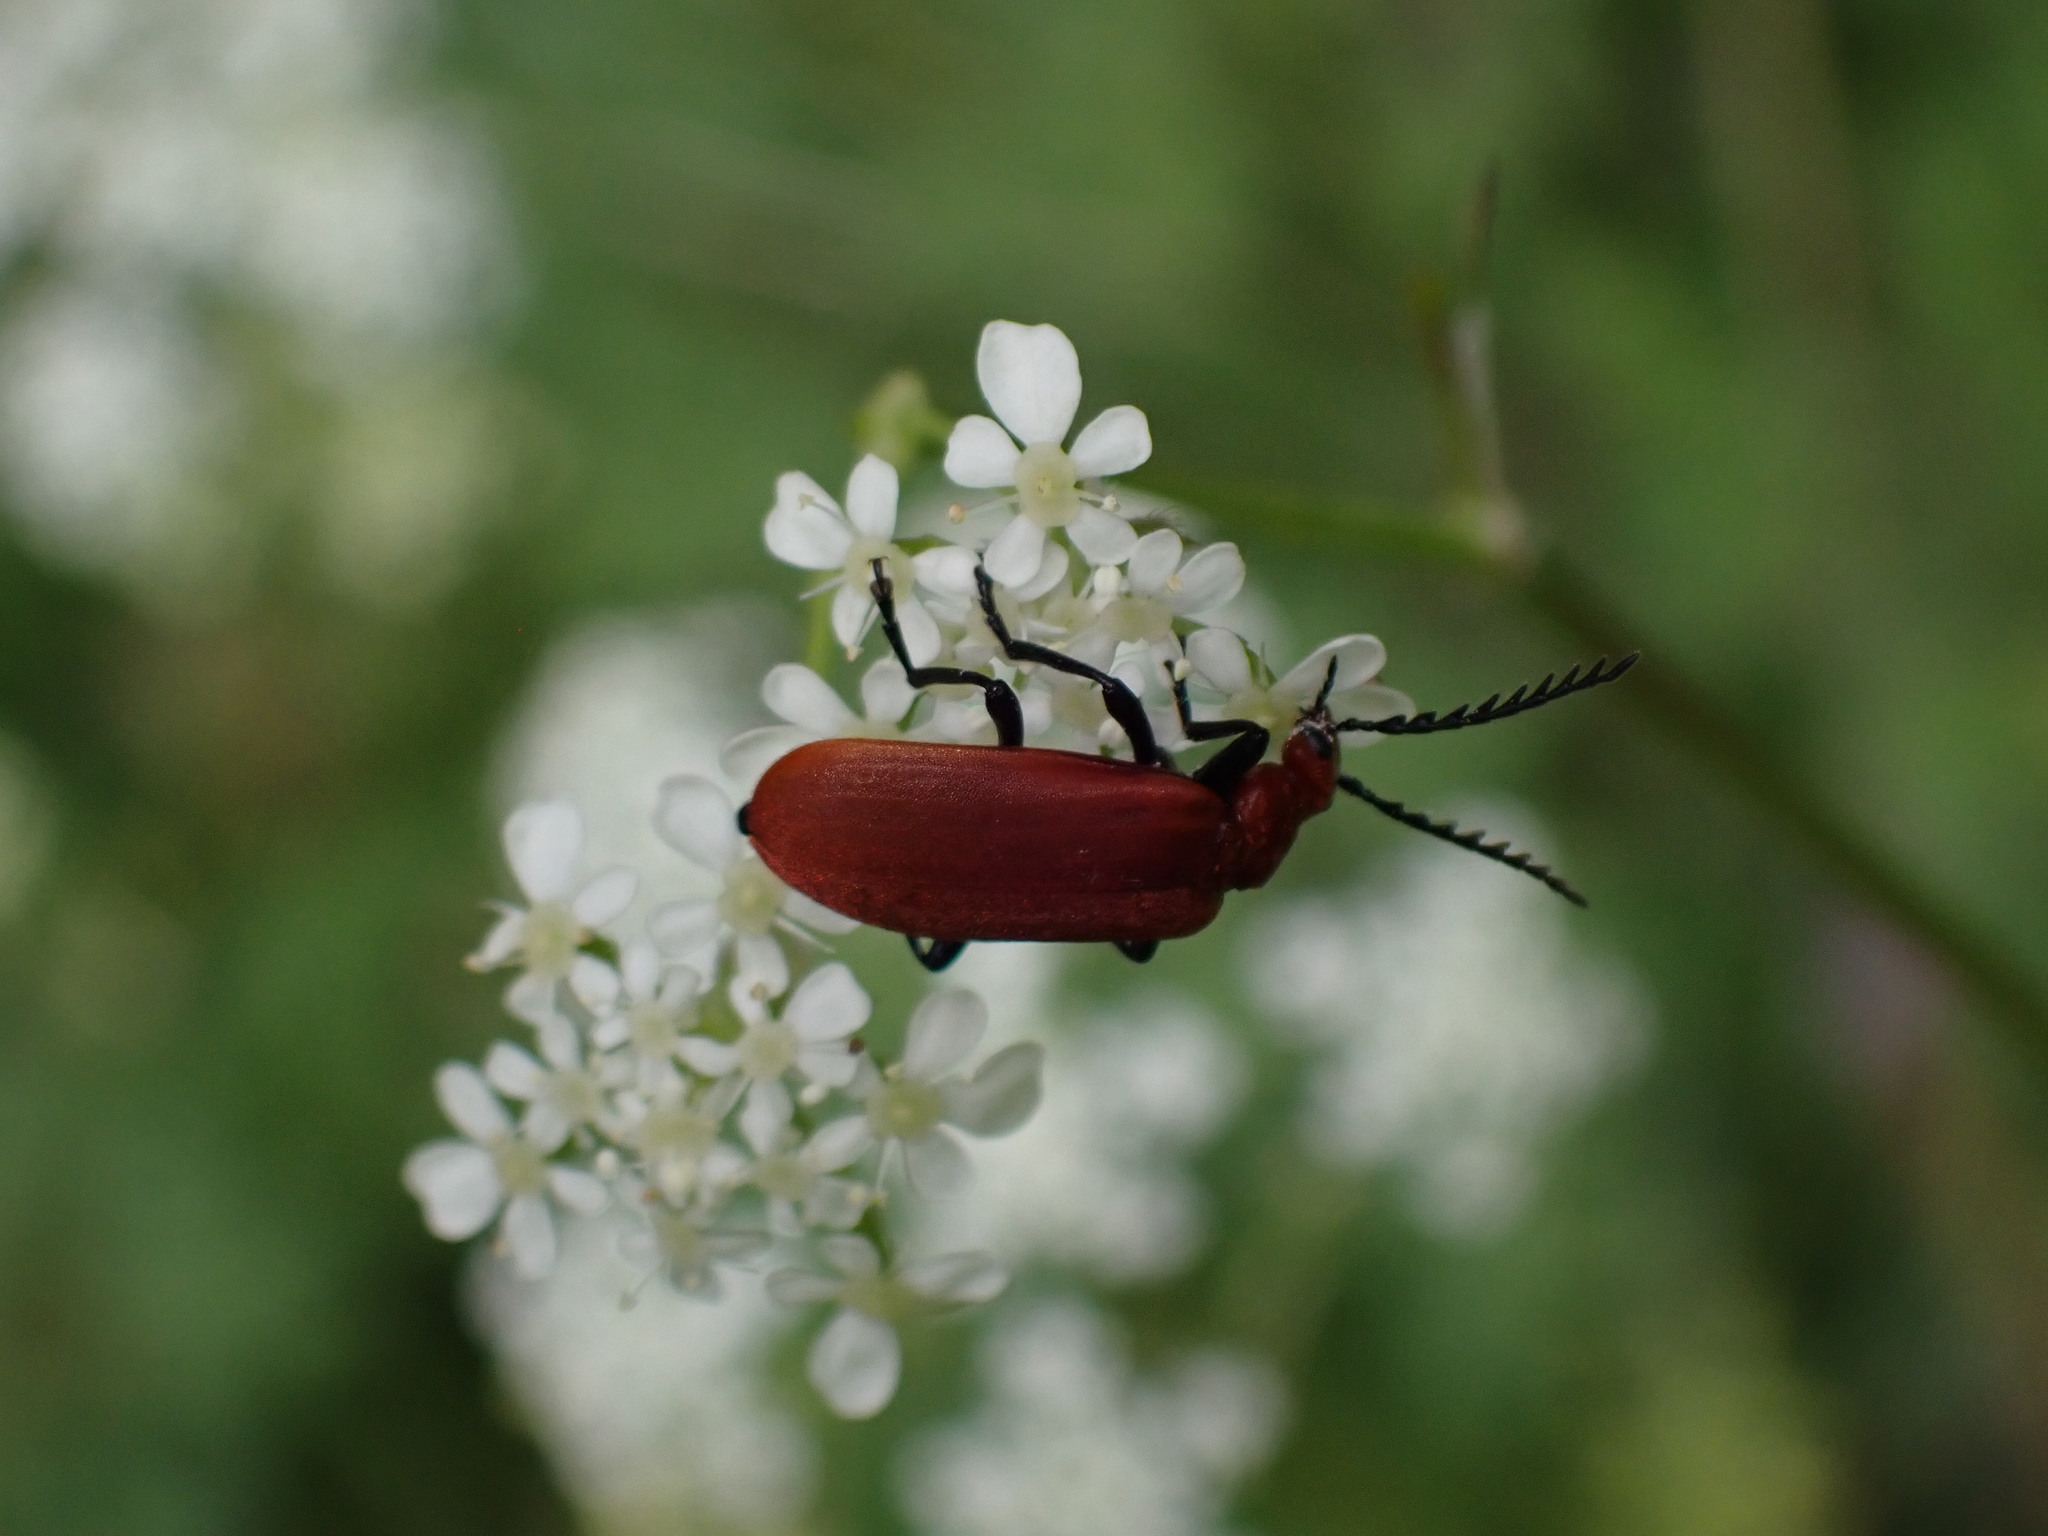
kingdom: Animalia
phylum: Arthropoda
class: Insecta
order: Coleoptera
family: Pyrochroidae
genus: Pyrochroa
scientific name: Pyrochroa serraticornis
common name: Red-headed cardinal beetle
